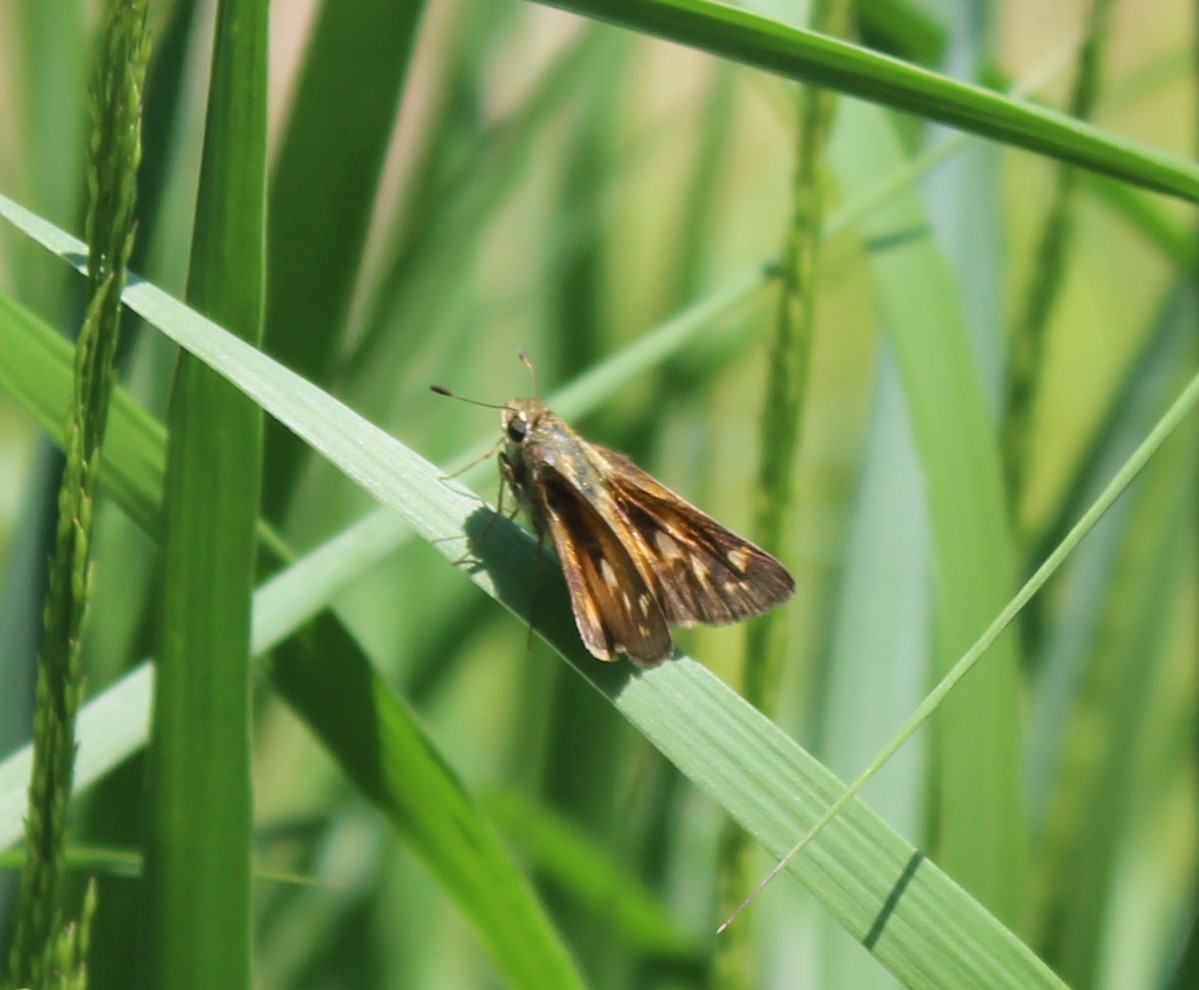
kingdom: Animalia
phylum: Arthropoda
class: Insecta
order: Lepidoptera
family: Hesperiidae
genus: Atalopedes
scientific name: Atalopedes
